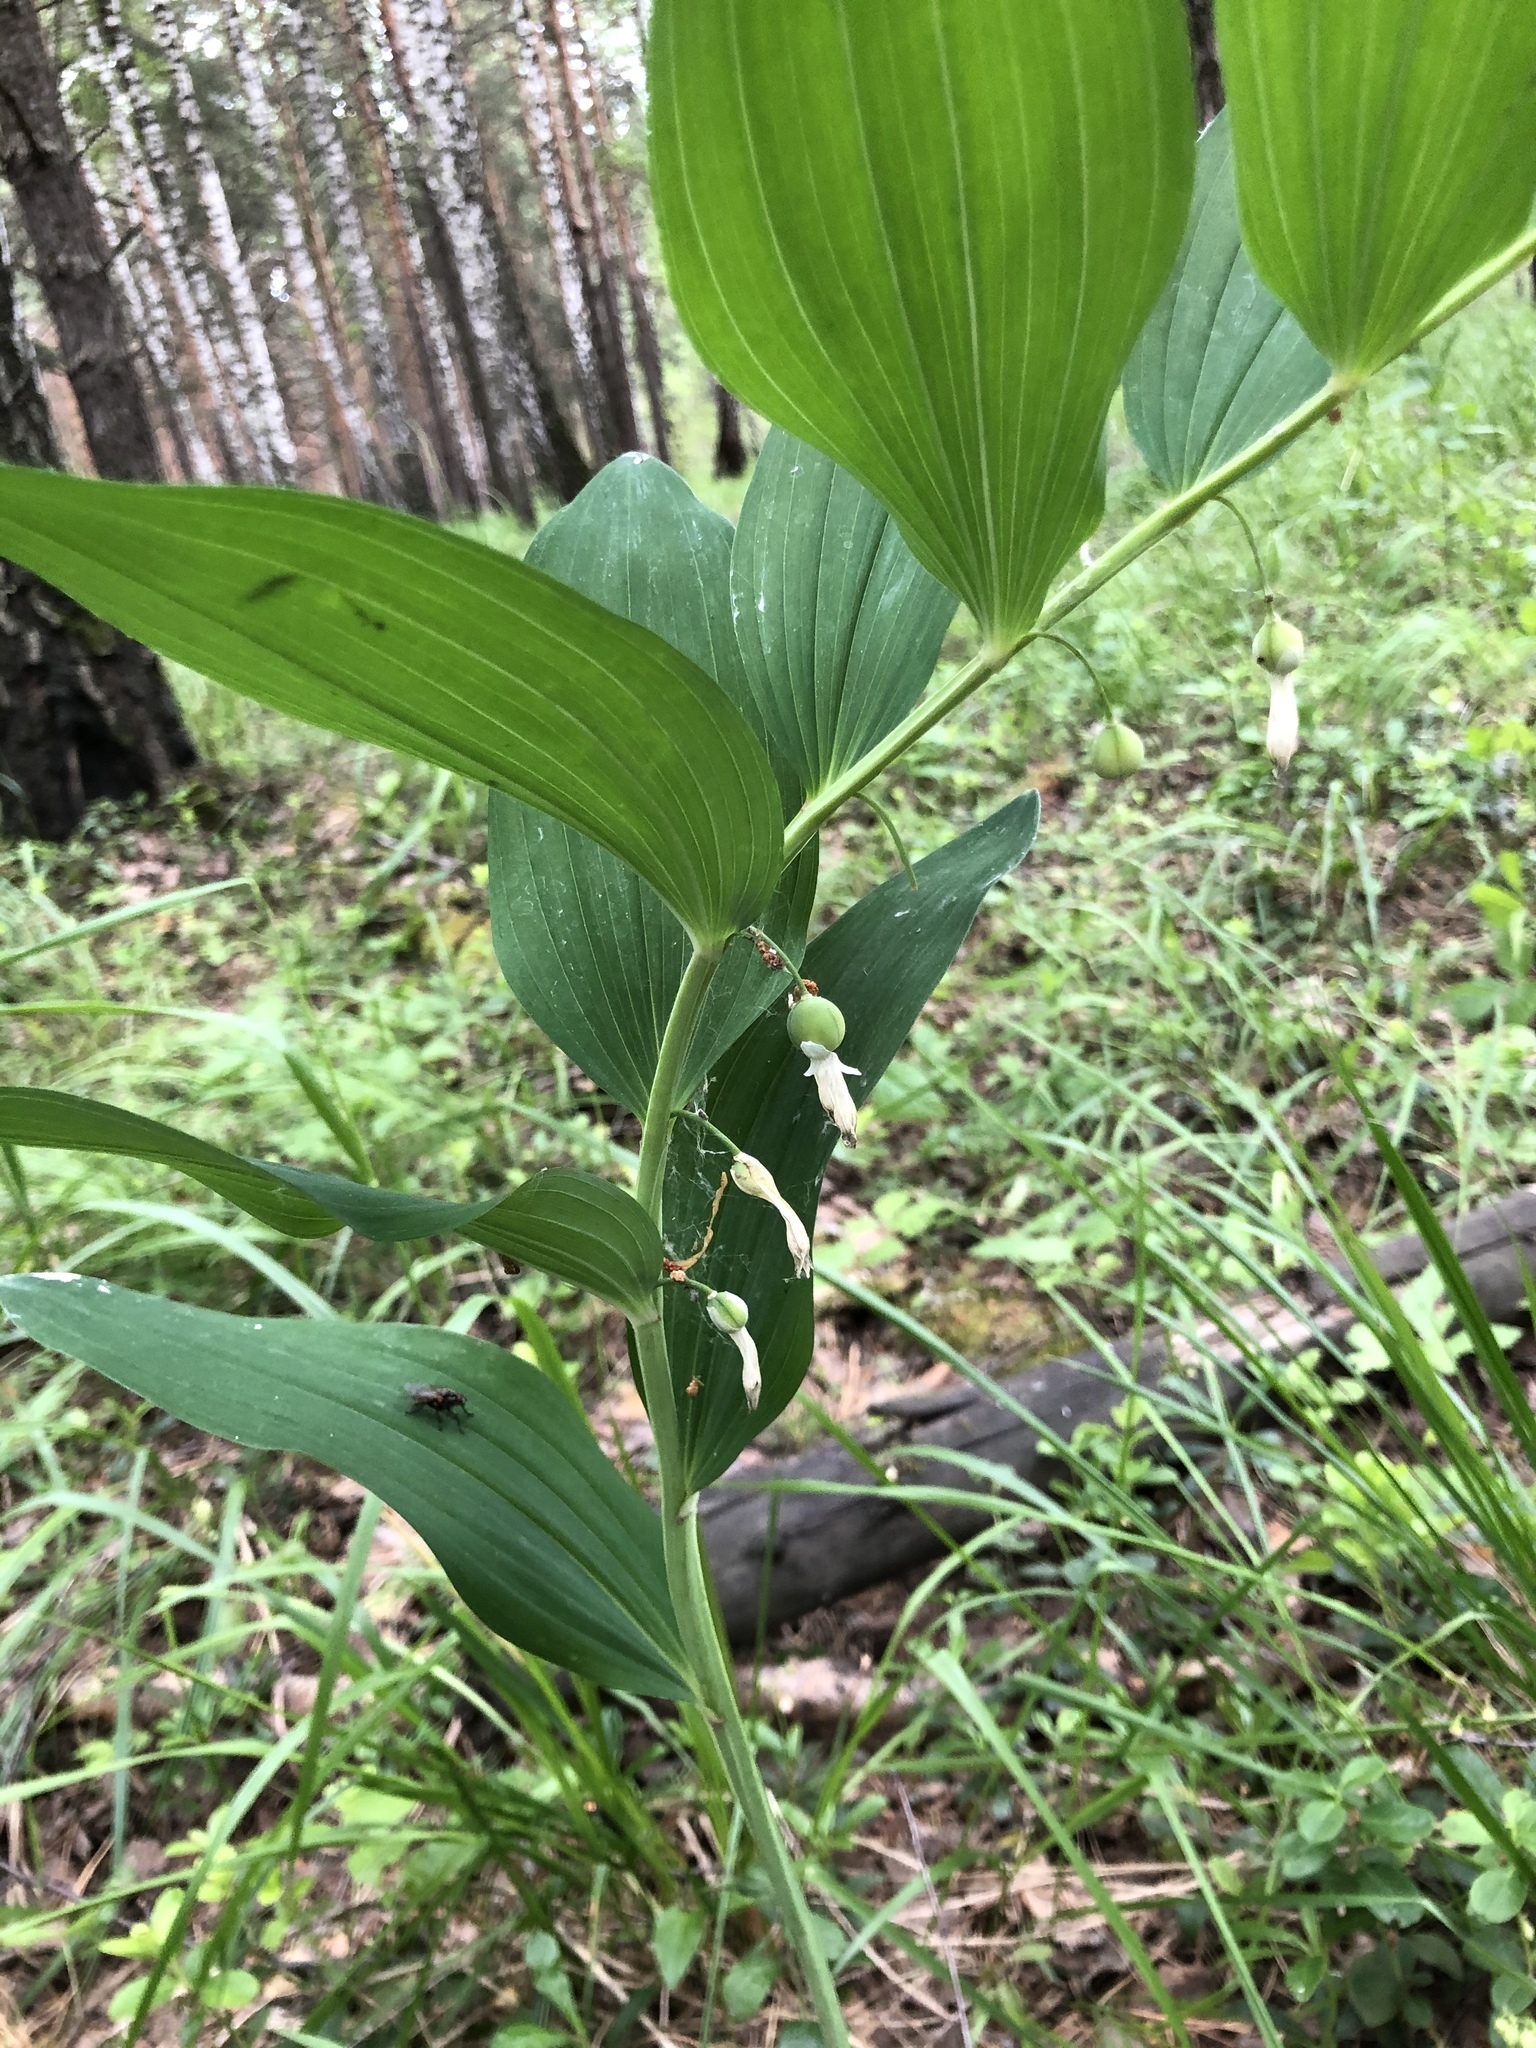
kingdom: Plantae
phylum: Tracheophyta
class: Liliopsida
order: Asparagales
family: Asparagaceae
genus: Polygonatum
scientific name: Polygonatum odoratum
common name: Angular solomon's-seal
